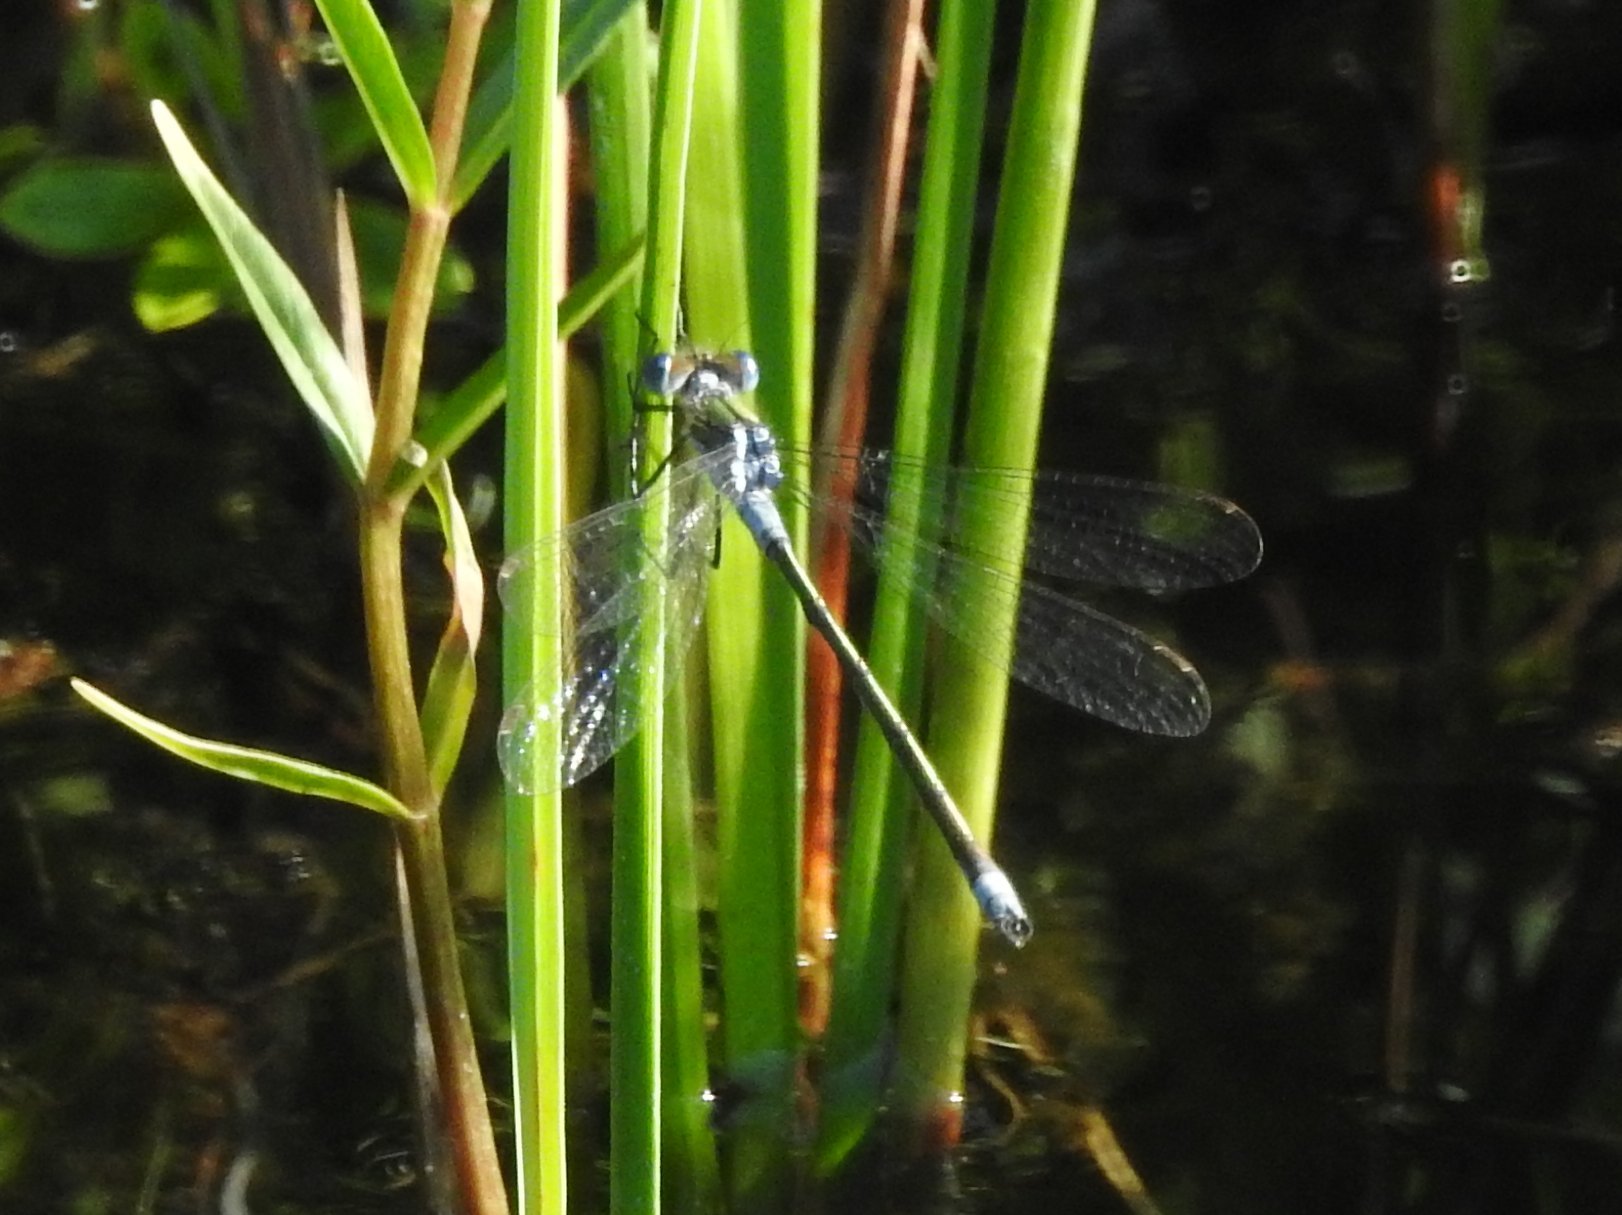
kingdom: Animalia
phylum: Arthropoda
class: Insecta
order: Odonata
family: Lestidae
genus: Lestes
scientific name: Lestes sponsa
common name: Common spreadwing
